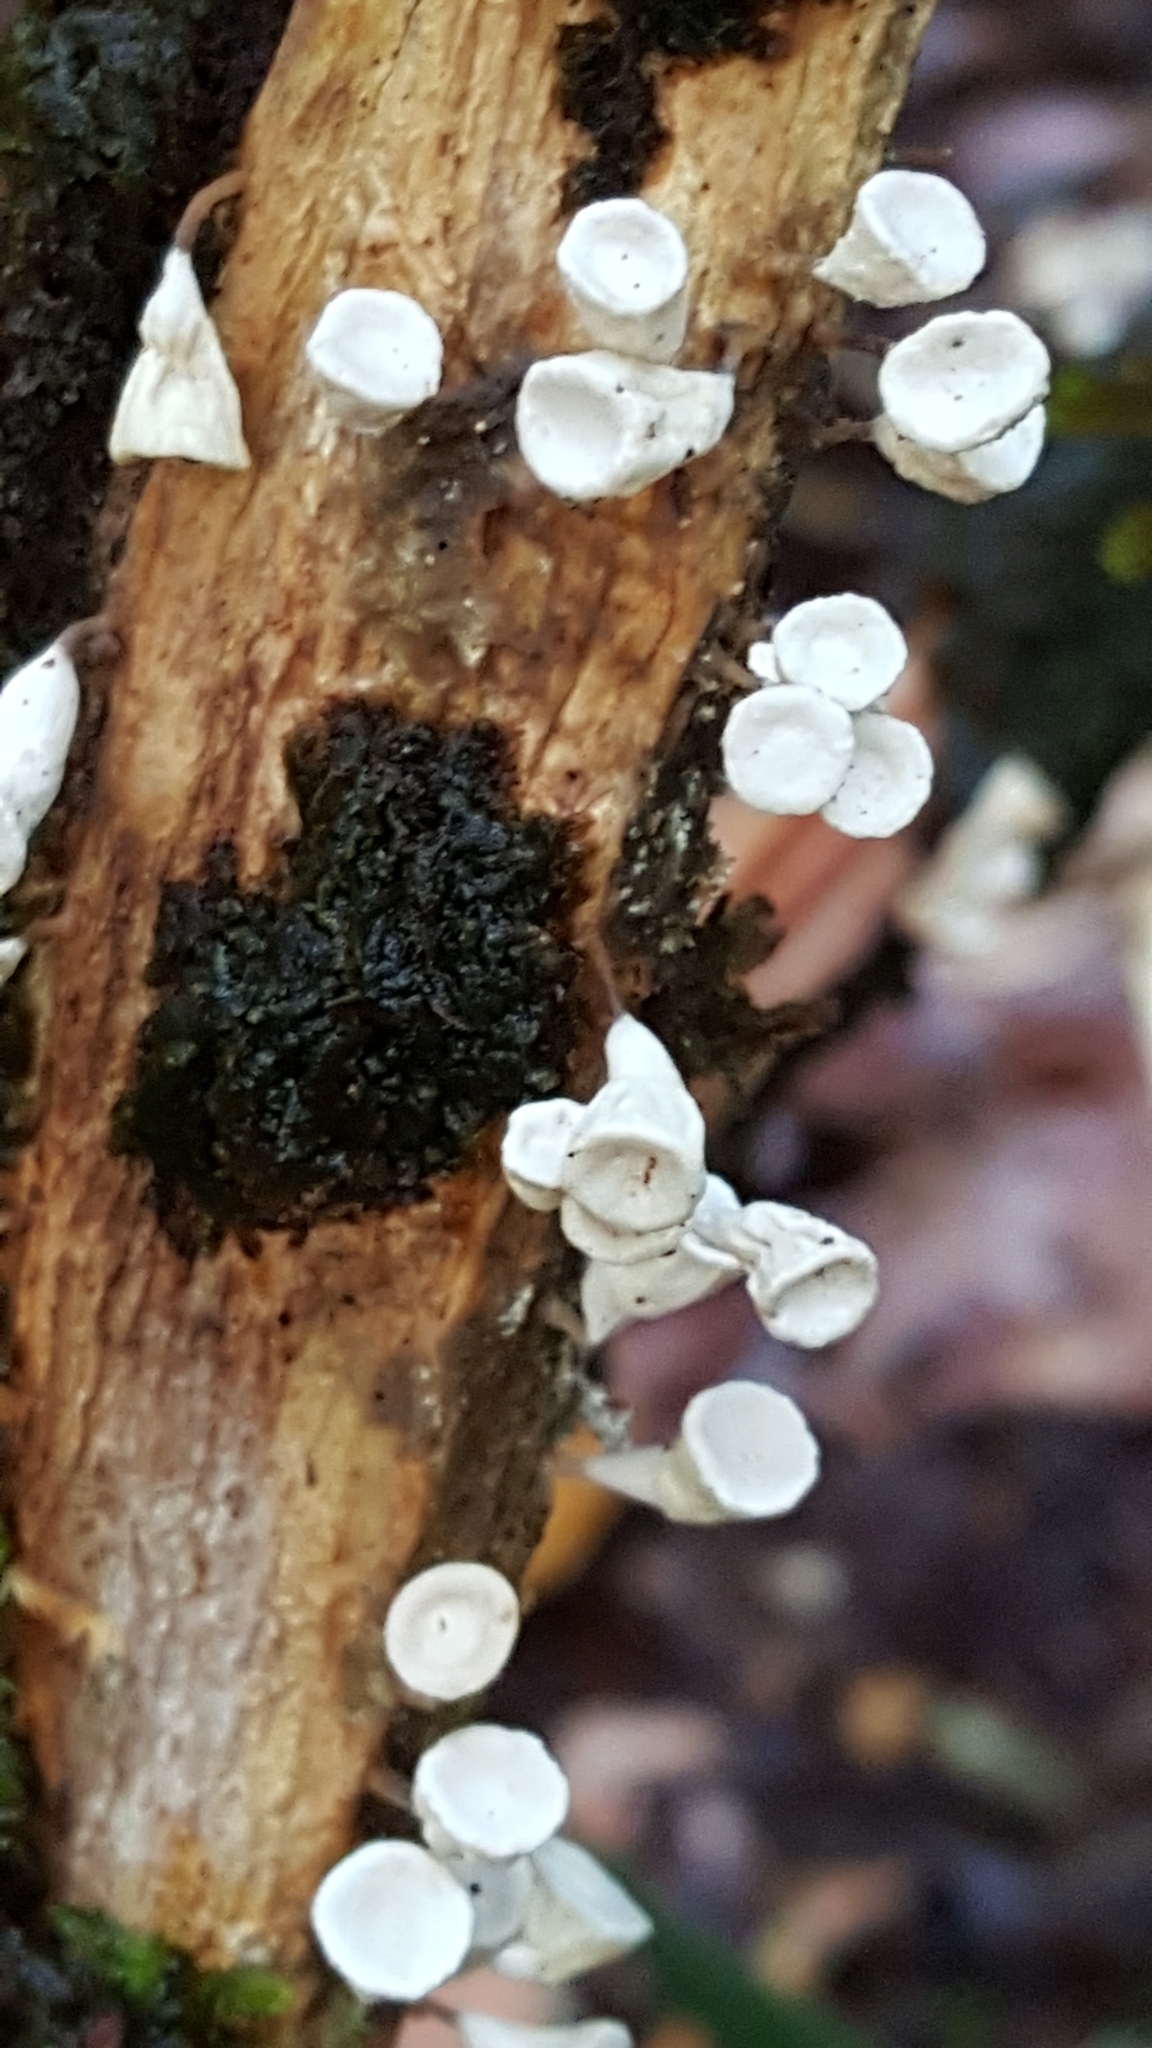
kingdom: Fungi
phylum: Basidiomycota
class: Agaricomycetes
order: Agaricales
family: Omphalotaceae
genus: Gymnopus
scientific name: Gymnopus montagnei
